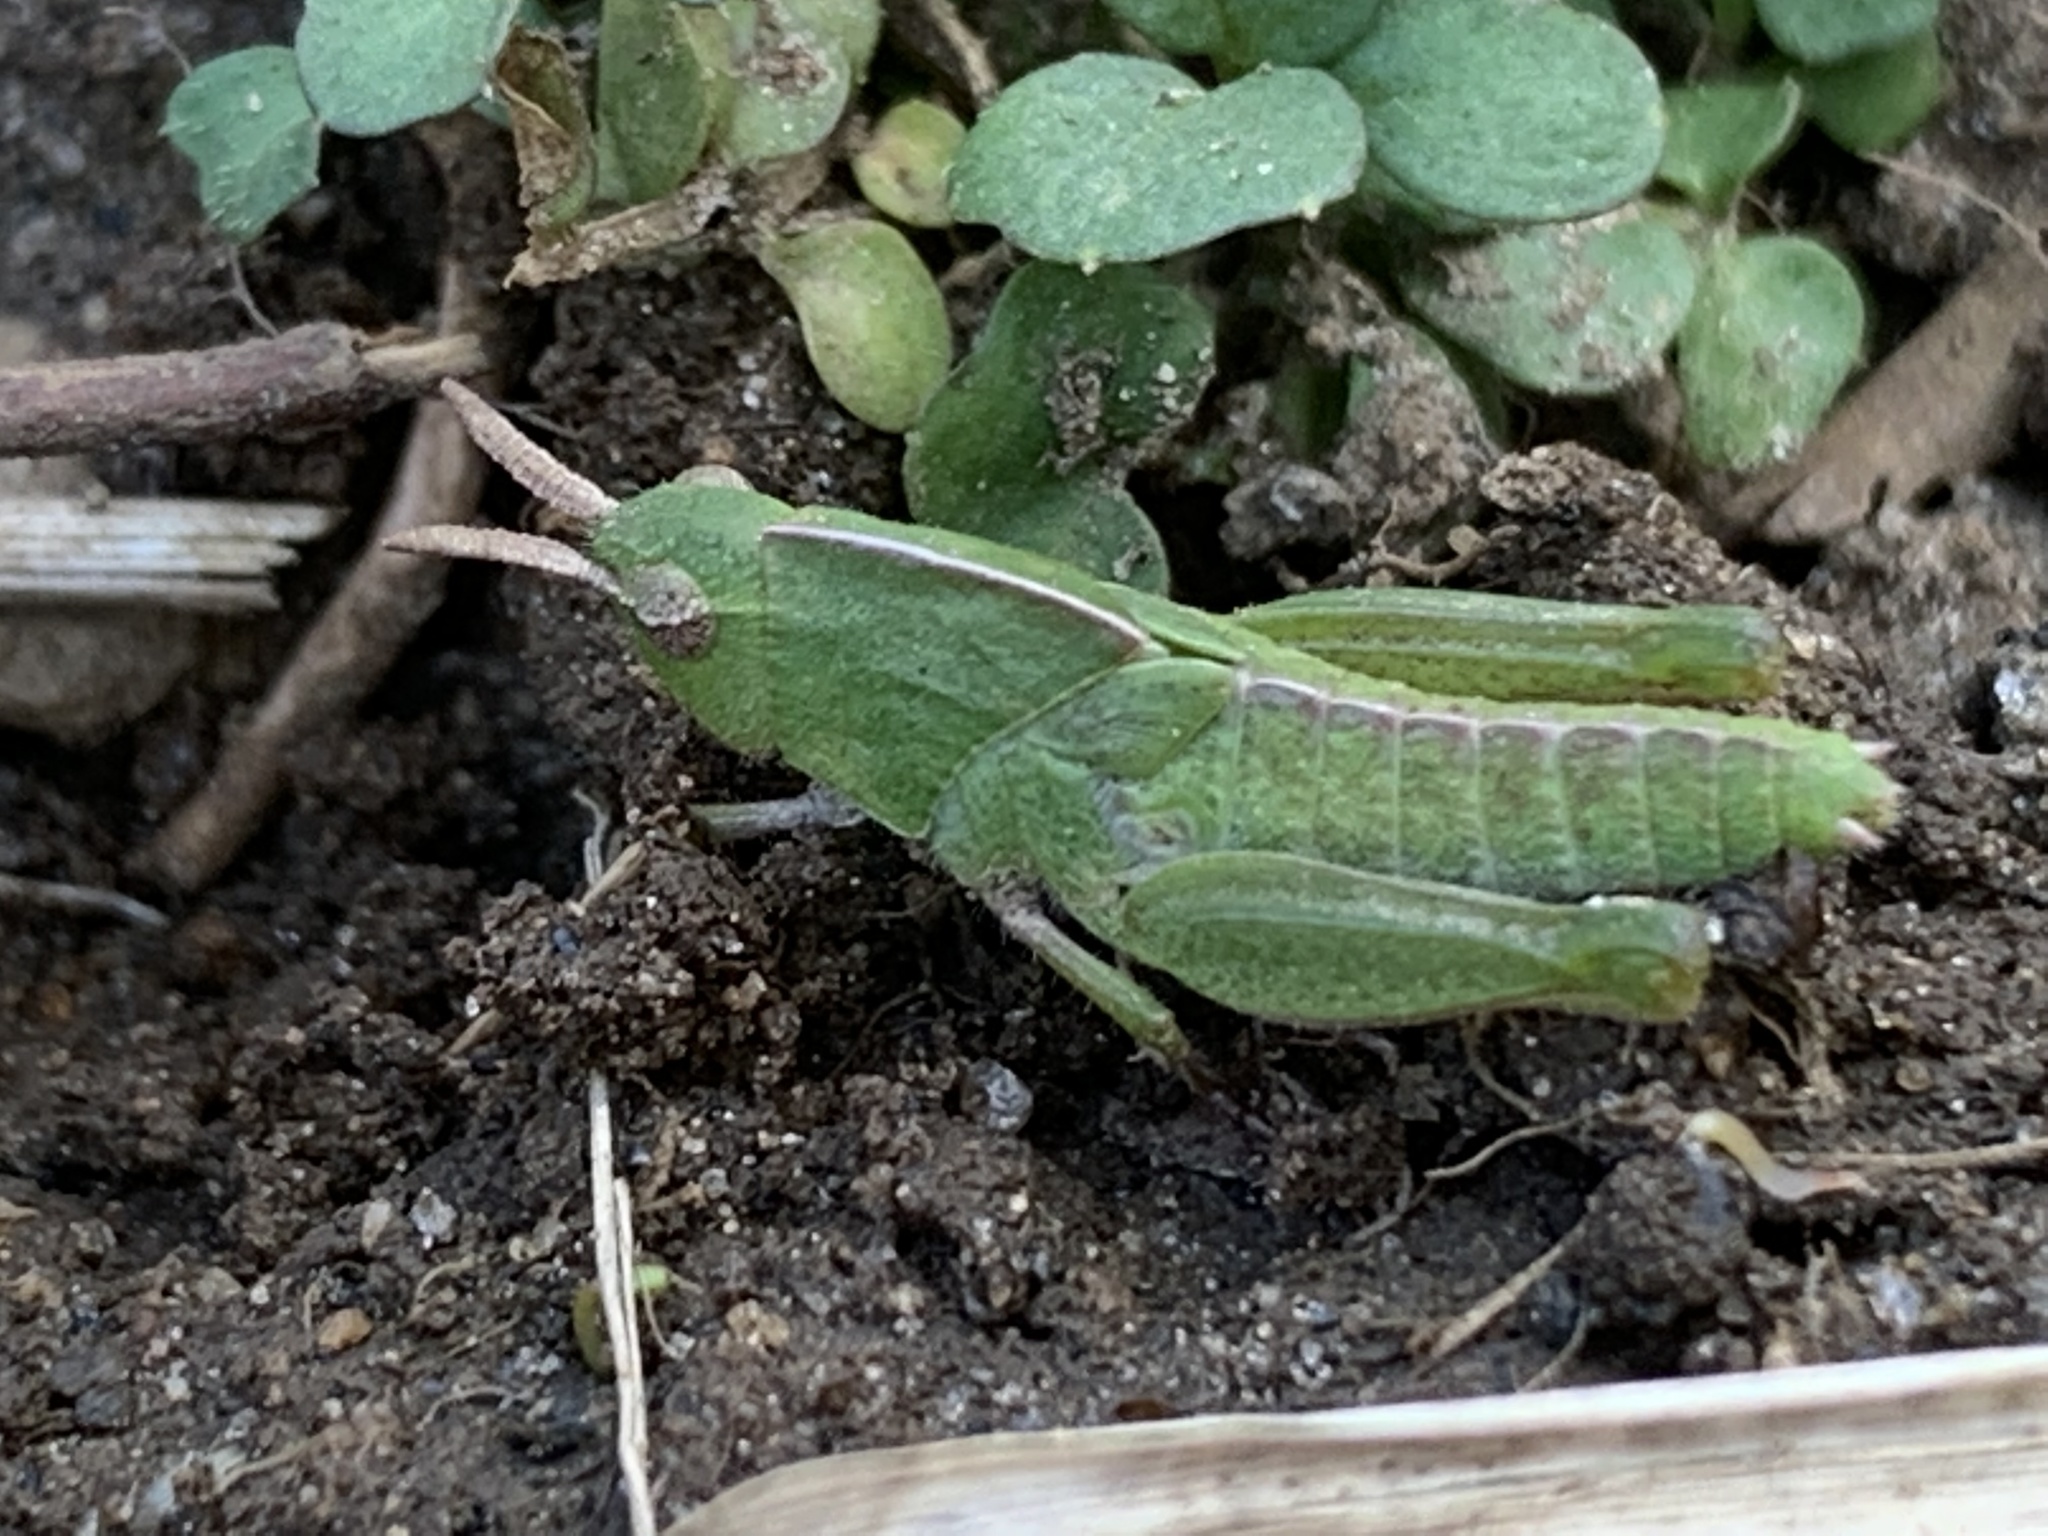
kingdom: Animalia
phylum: Arthropoda
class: Insecta
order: Orthoptera
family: Acrididae
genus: Chortophaga
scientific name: Chortophaga viridifasciata
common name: Green-striped grasshopper
